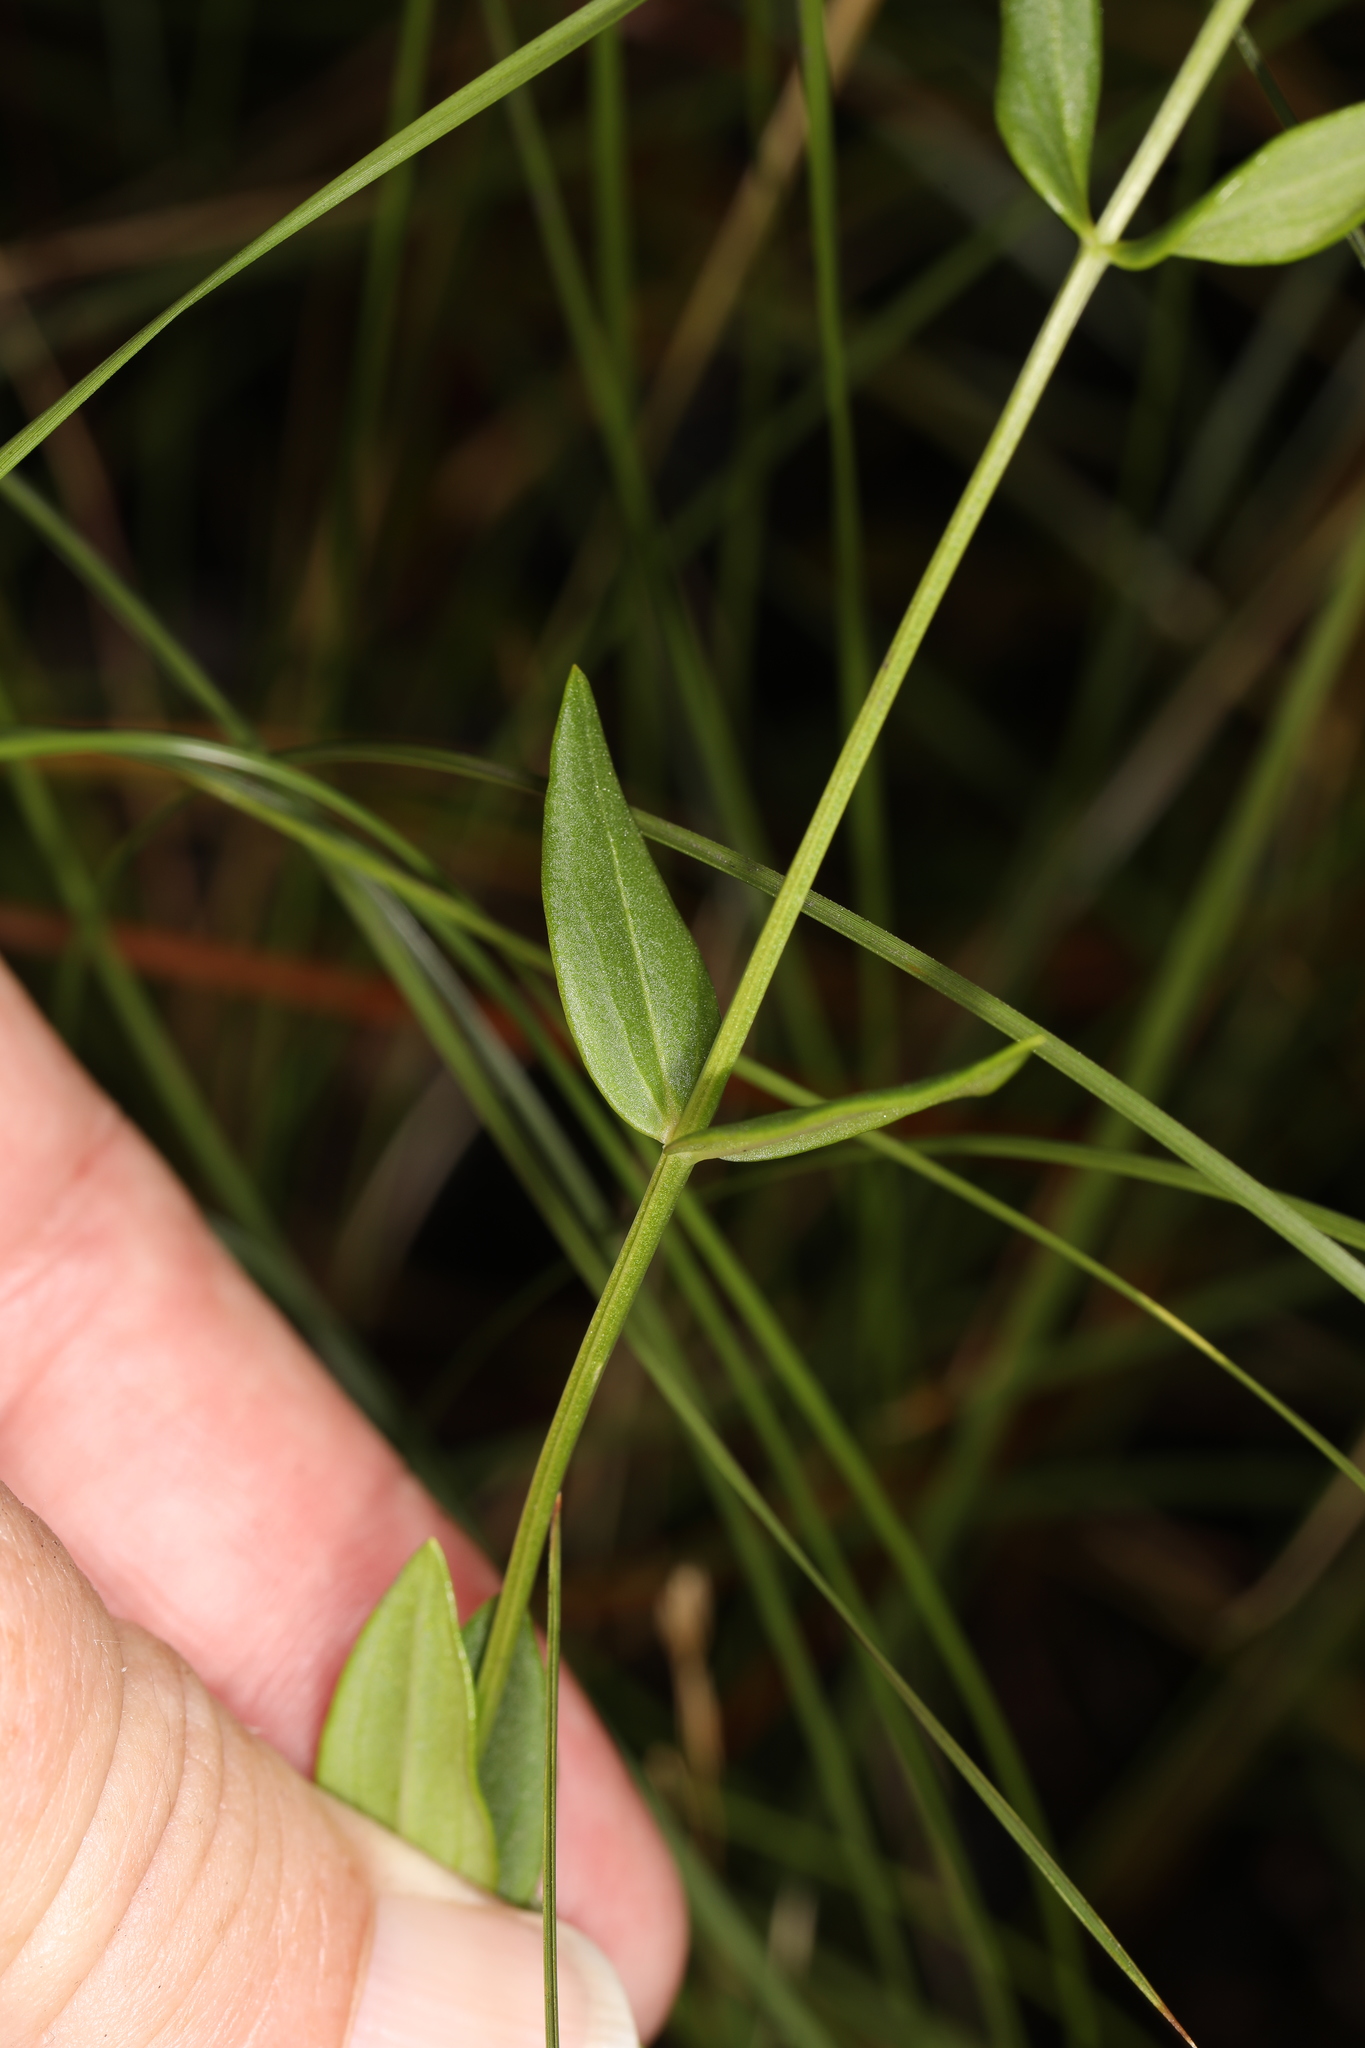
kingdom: Plantae
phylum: Tracheophyta
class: Magnoliopsida
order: Gentianales
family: Gentianaceae
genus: Sabatia
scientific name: Sabatia difformis
